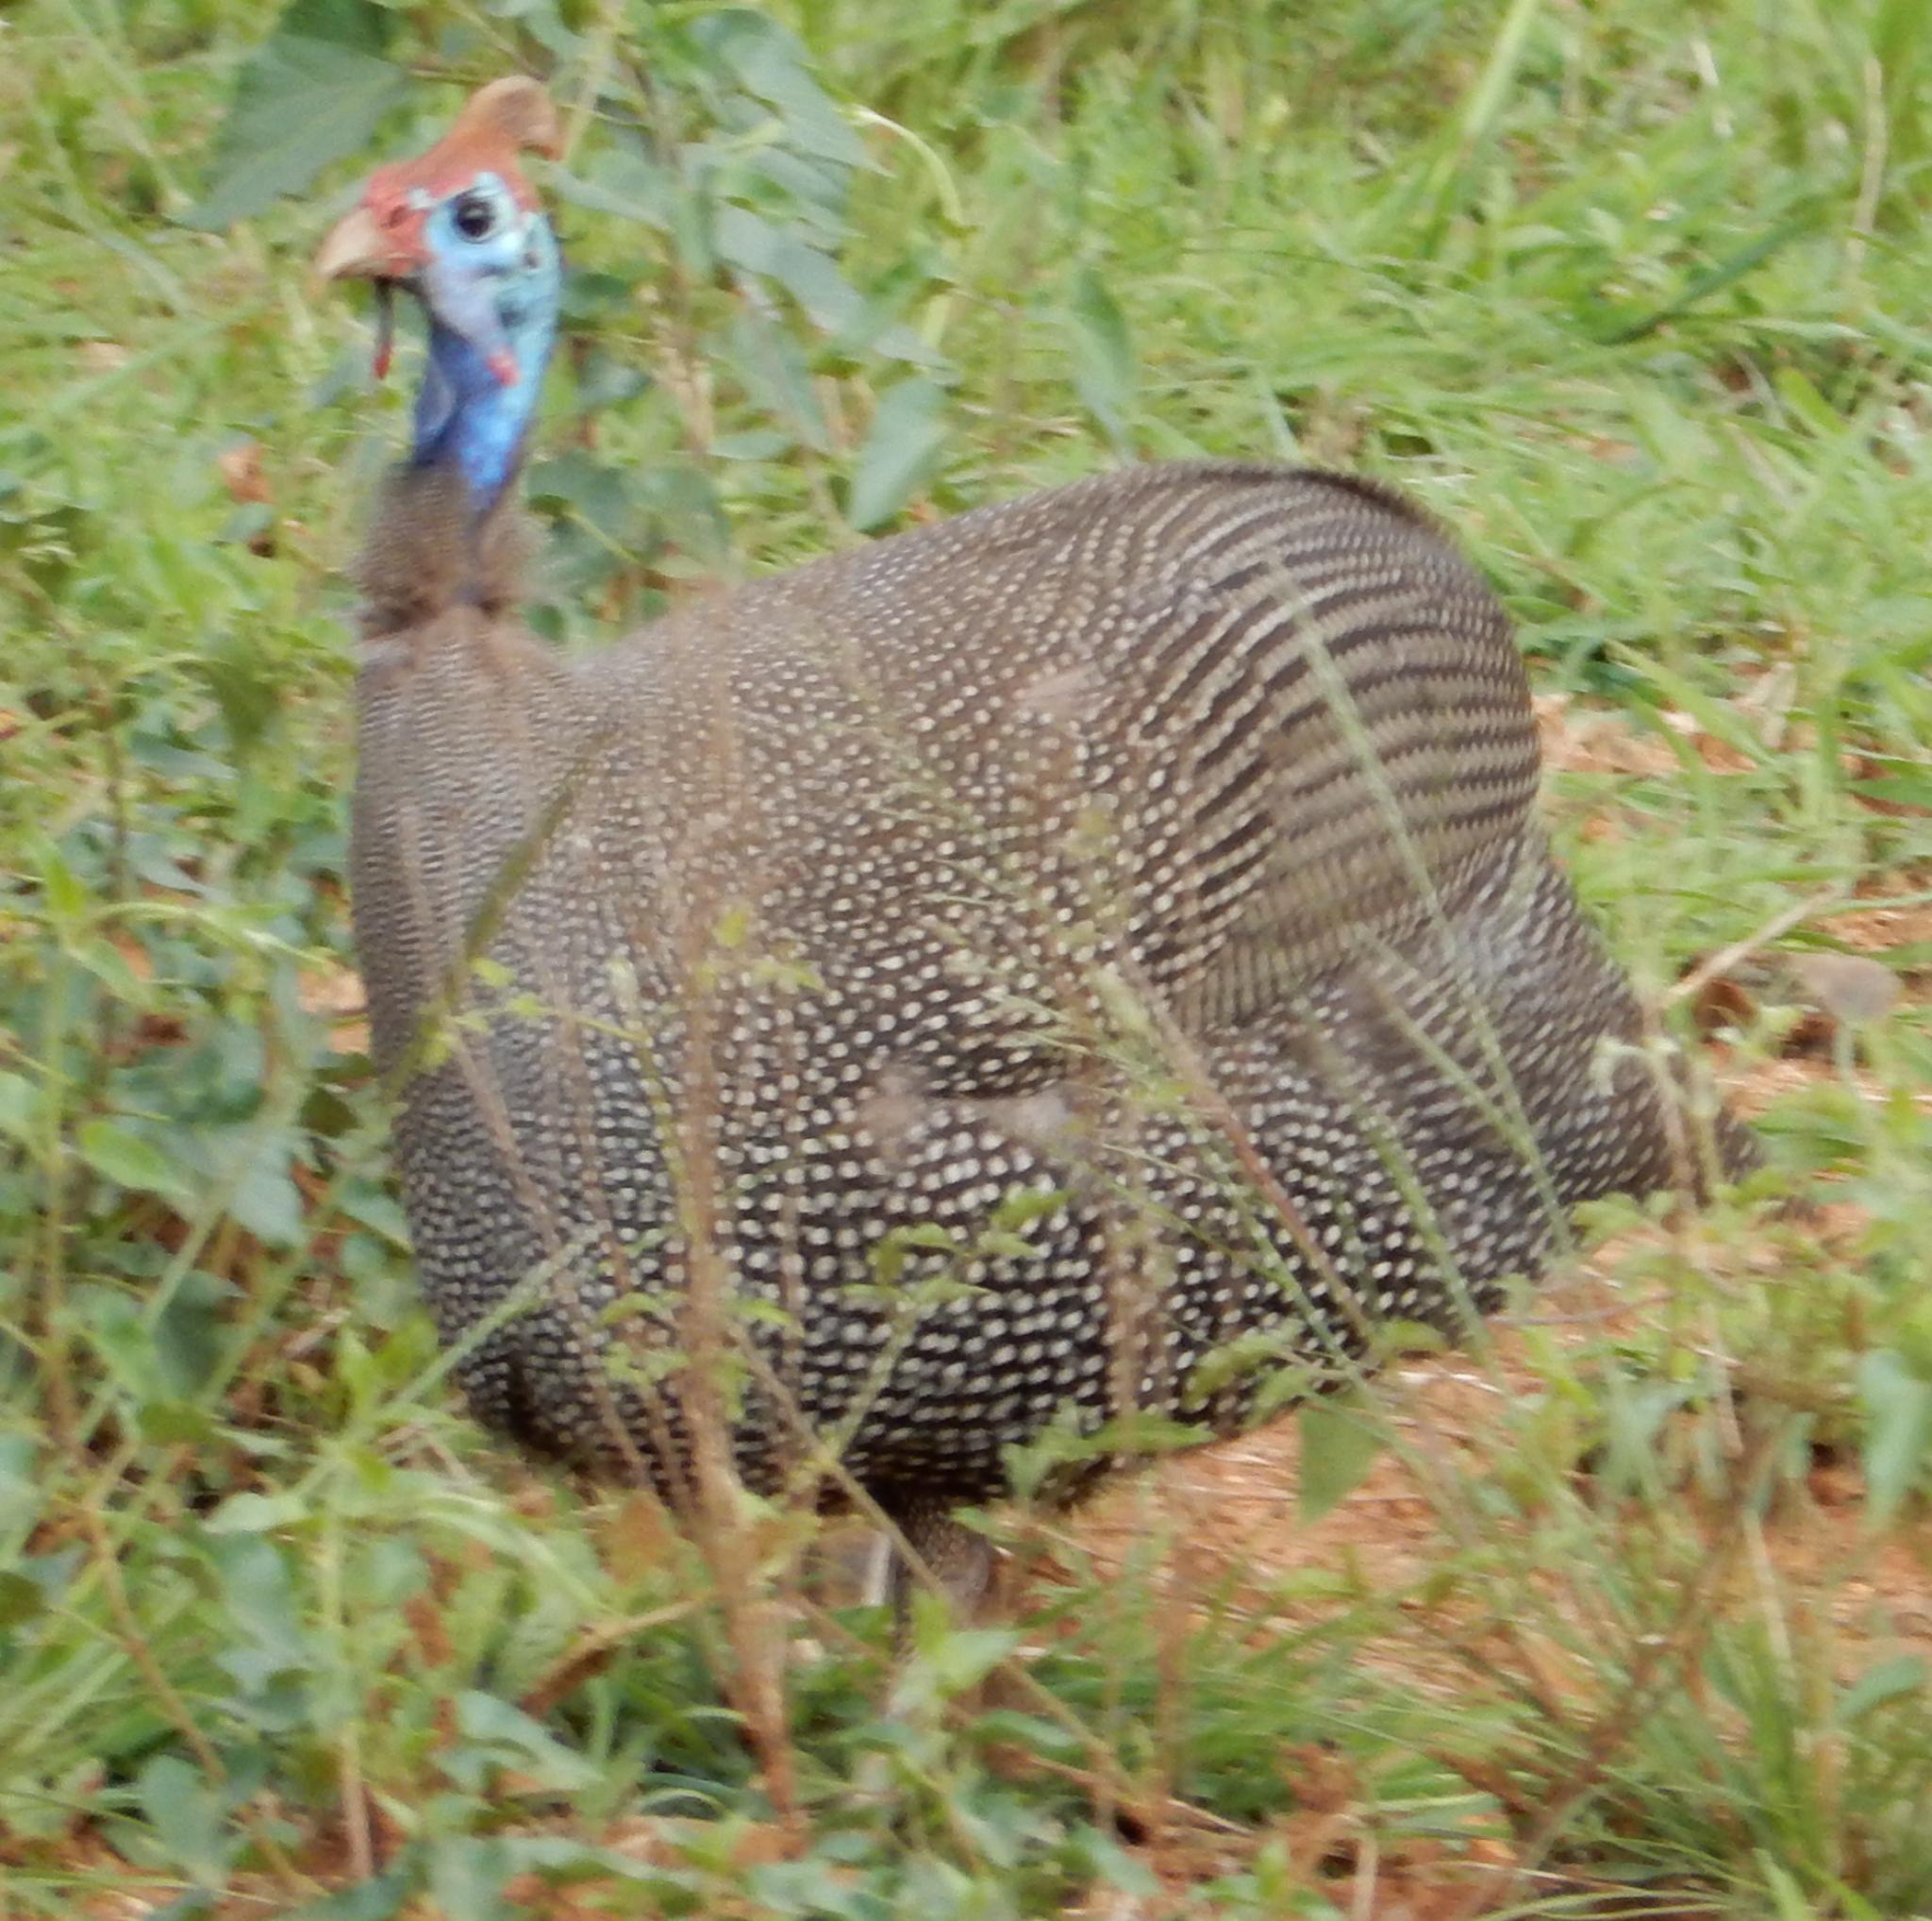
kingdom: Animalia
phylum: Chordata
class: Aves
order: Galliformes
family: Numididae
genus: Numida
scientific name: Numida meleagris
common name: Helmeted guineafowl
